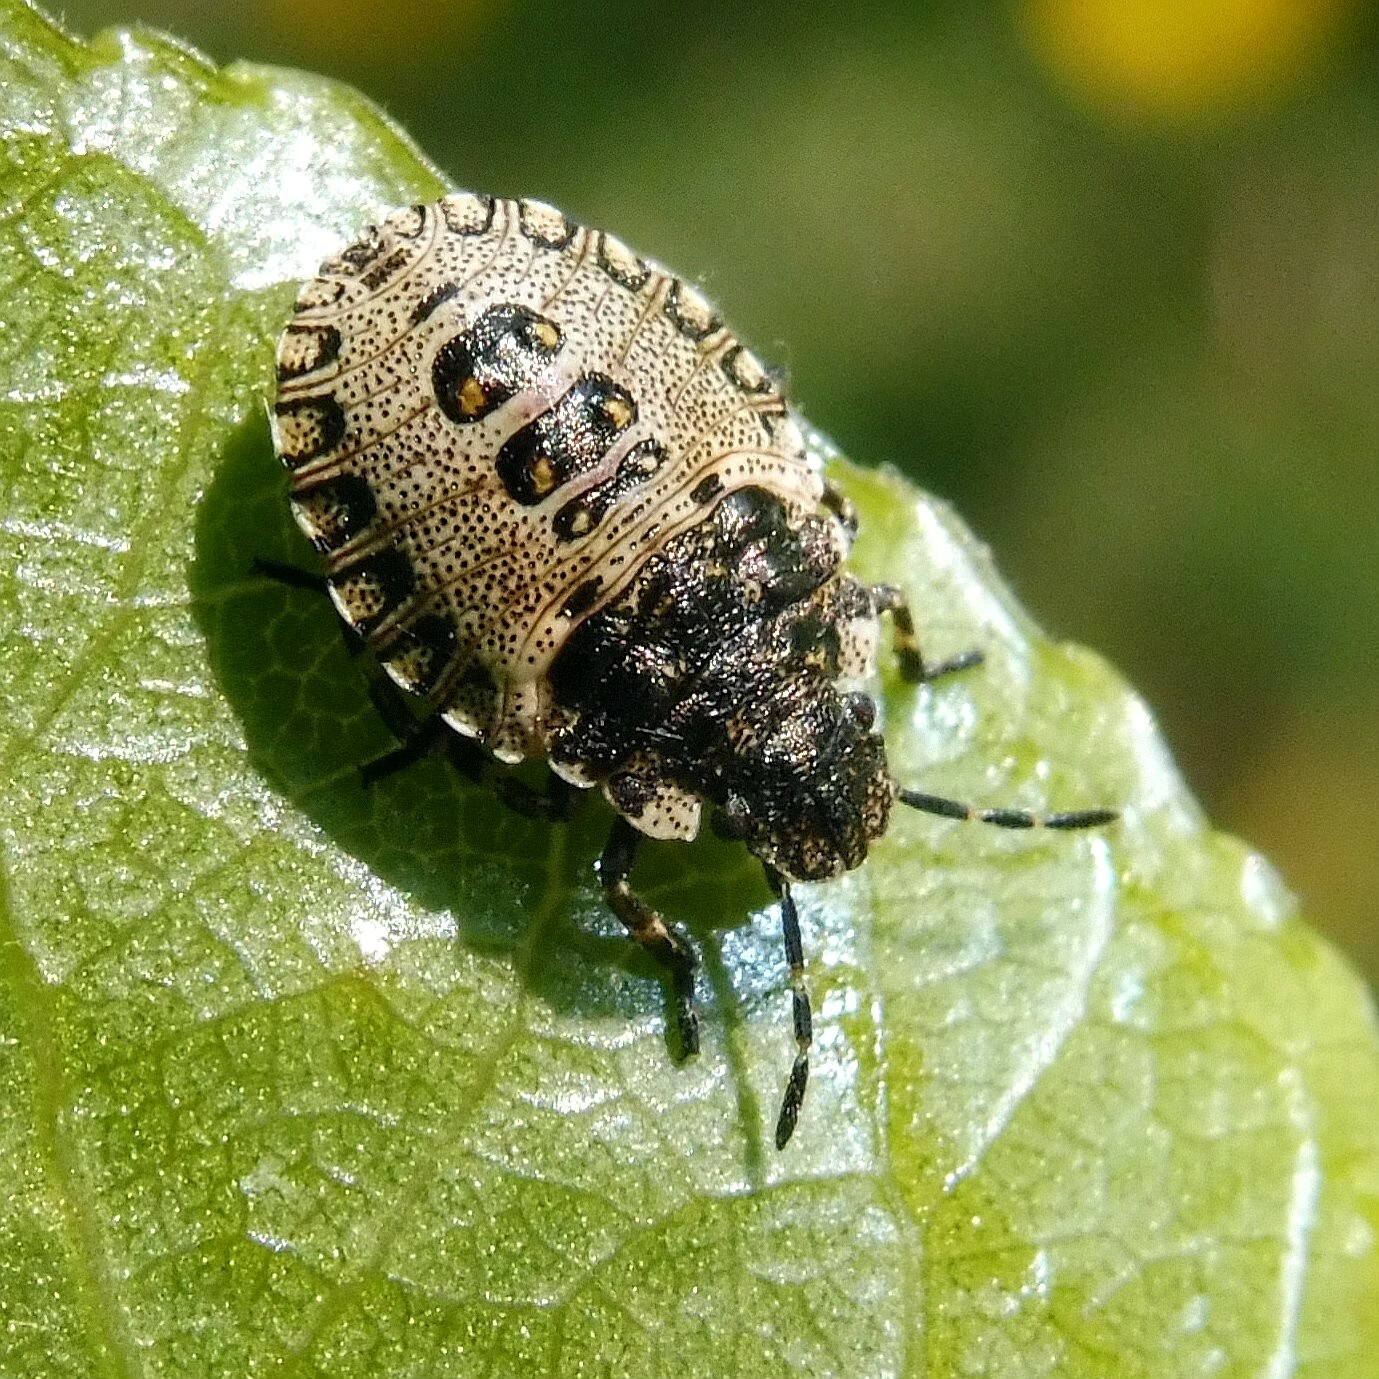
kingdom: Animalia
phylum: Arthropoda
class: Insecta
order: Hemiptera
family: Pentatomidae
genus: Pentatoma
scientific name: Pentatoma rufipes
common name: Forest bug
